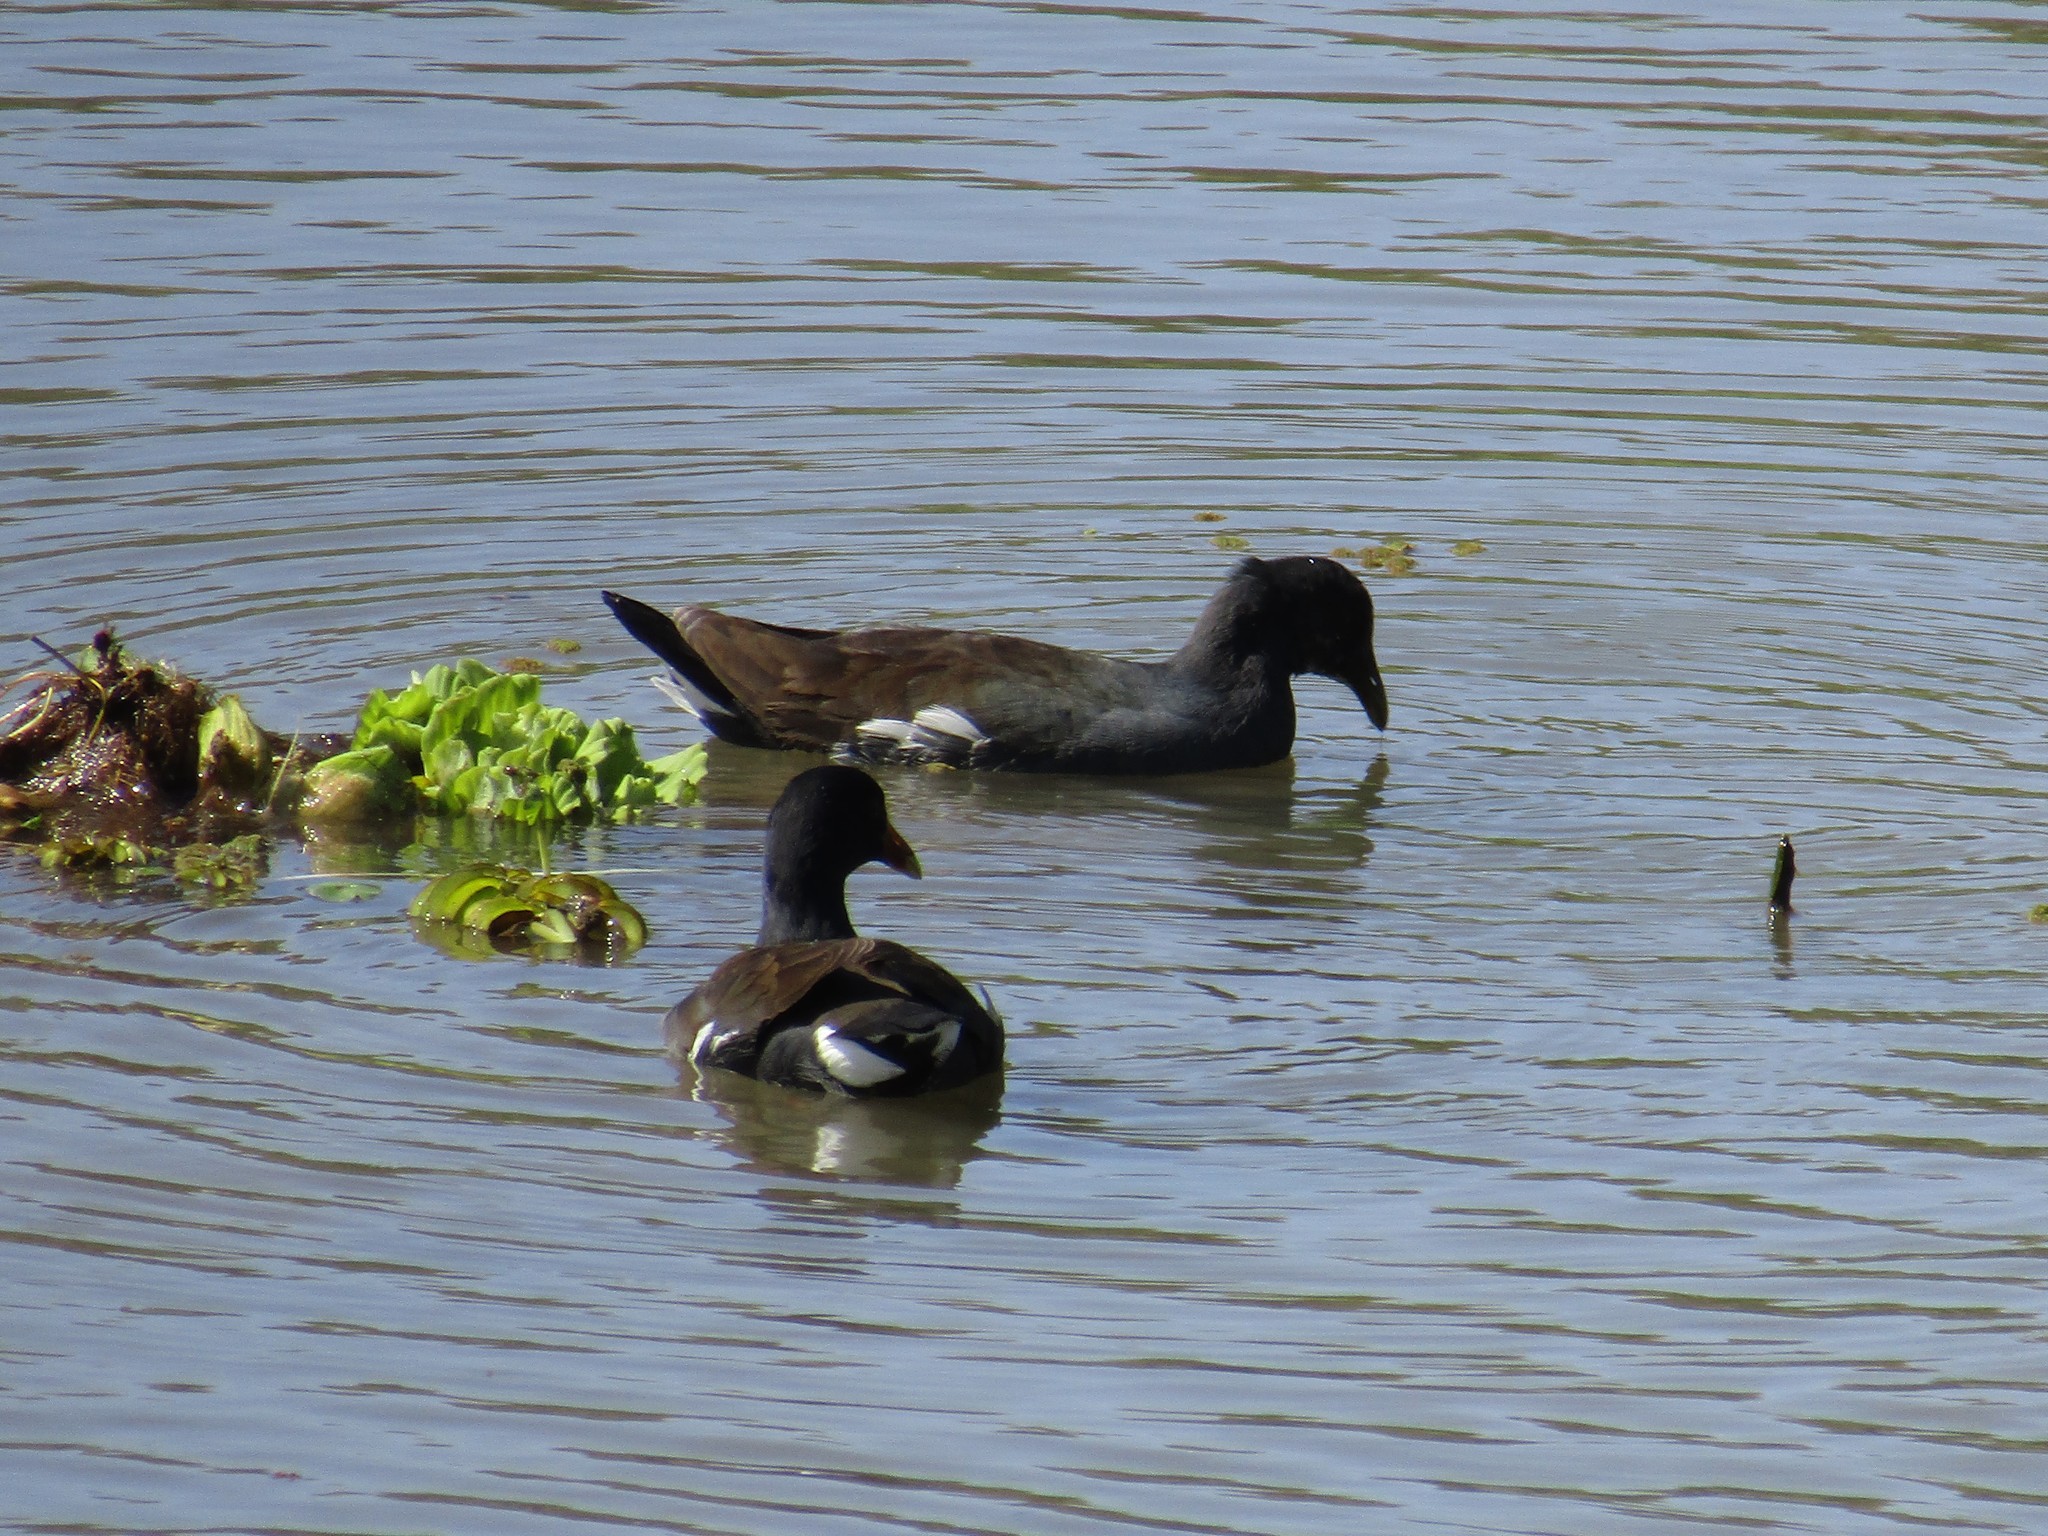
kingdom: Animalia
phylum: Chordata
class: Aves
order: Gruiformes
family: Rallidae
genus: Gallinula
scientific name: Gallinula chloropus
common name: Common moorhen
